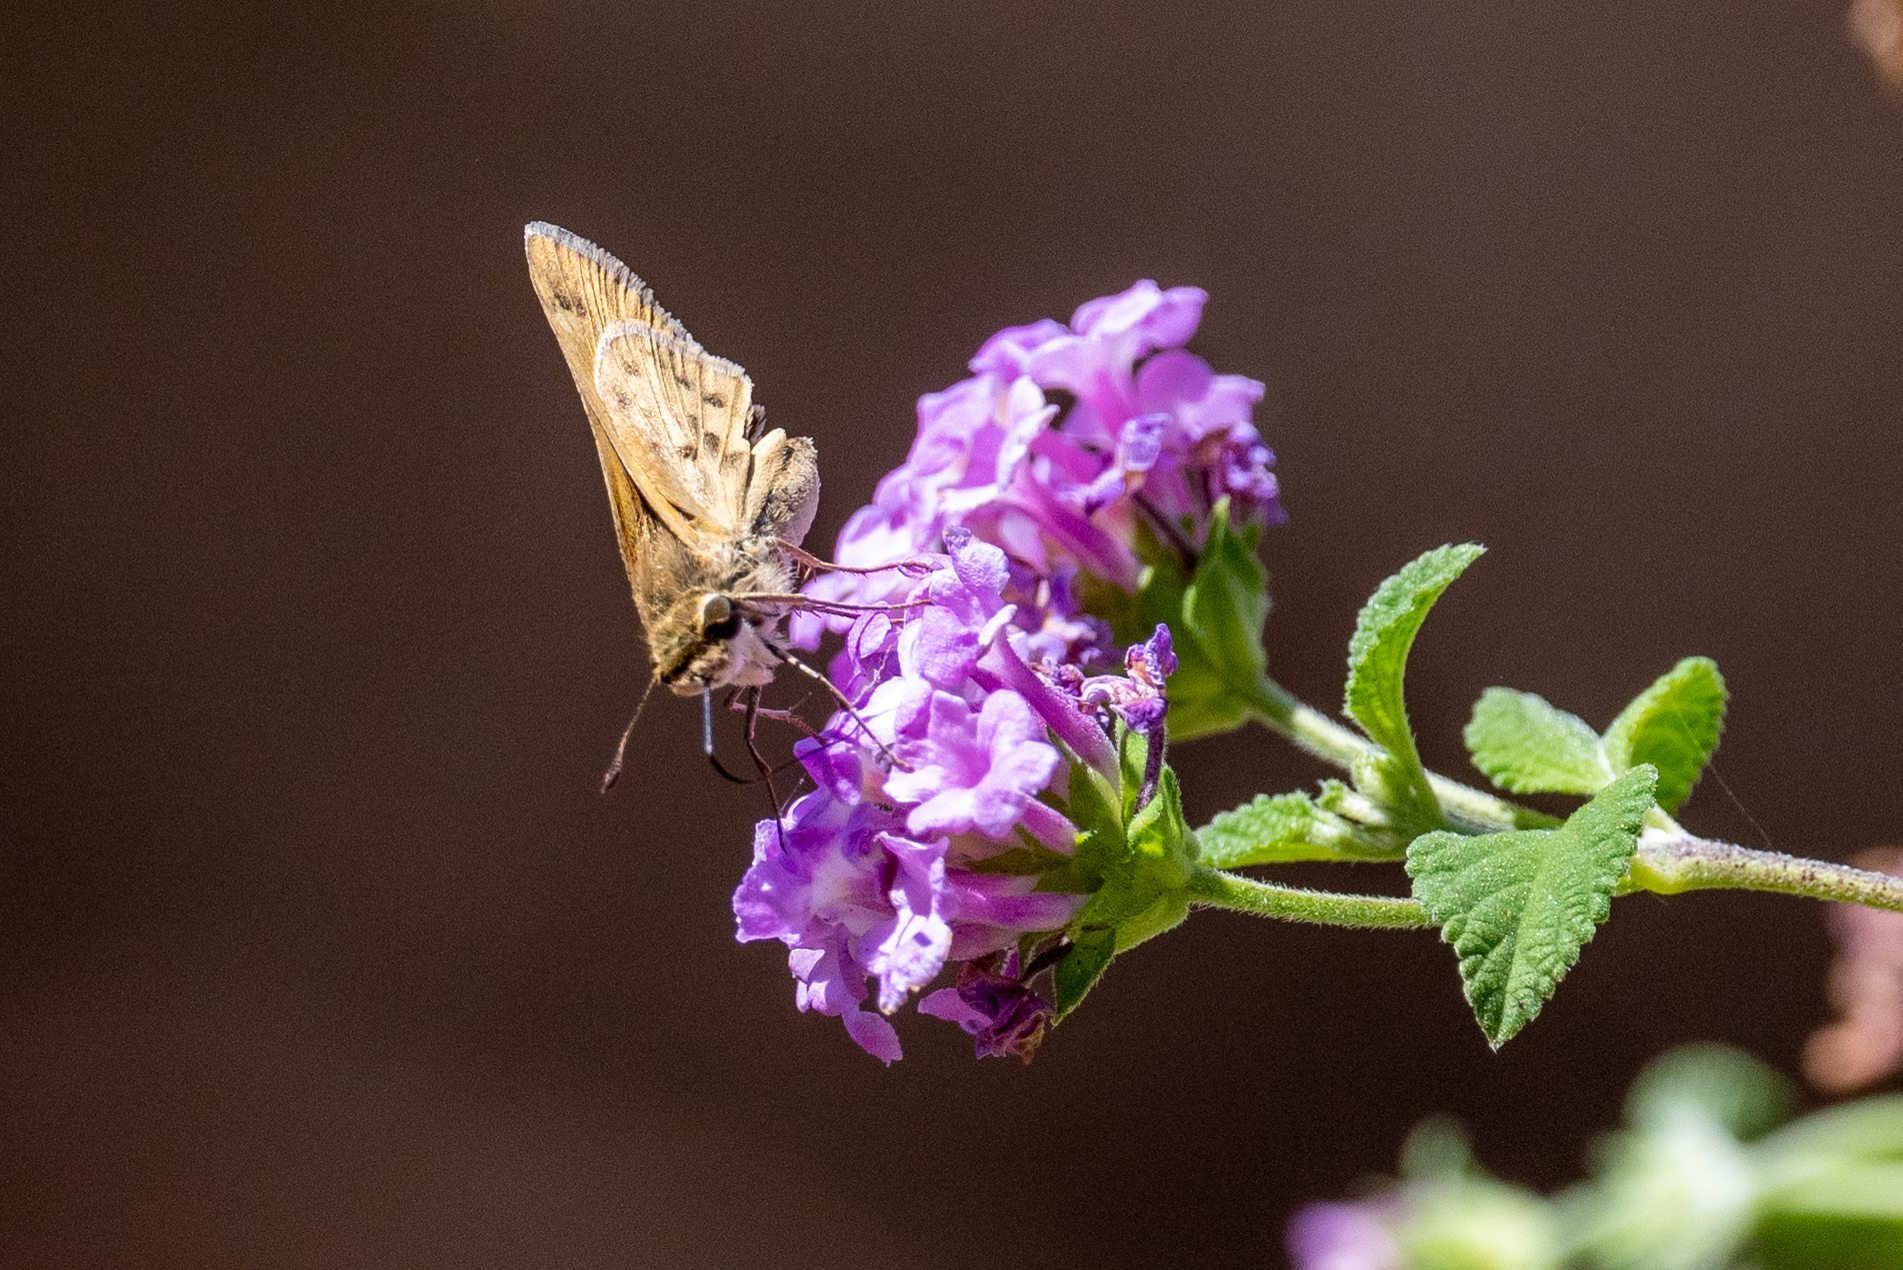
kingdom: Animalia
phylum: Arthropoda
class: Insecta
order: Lepidoptera
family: Hesperiidae
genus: Hylephila
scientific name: Hylephila phyleus
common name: Fiery skipper
